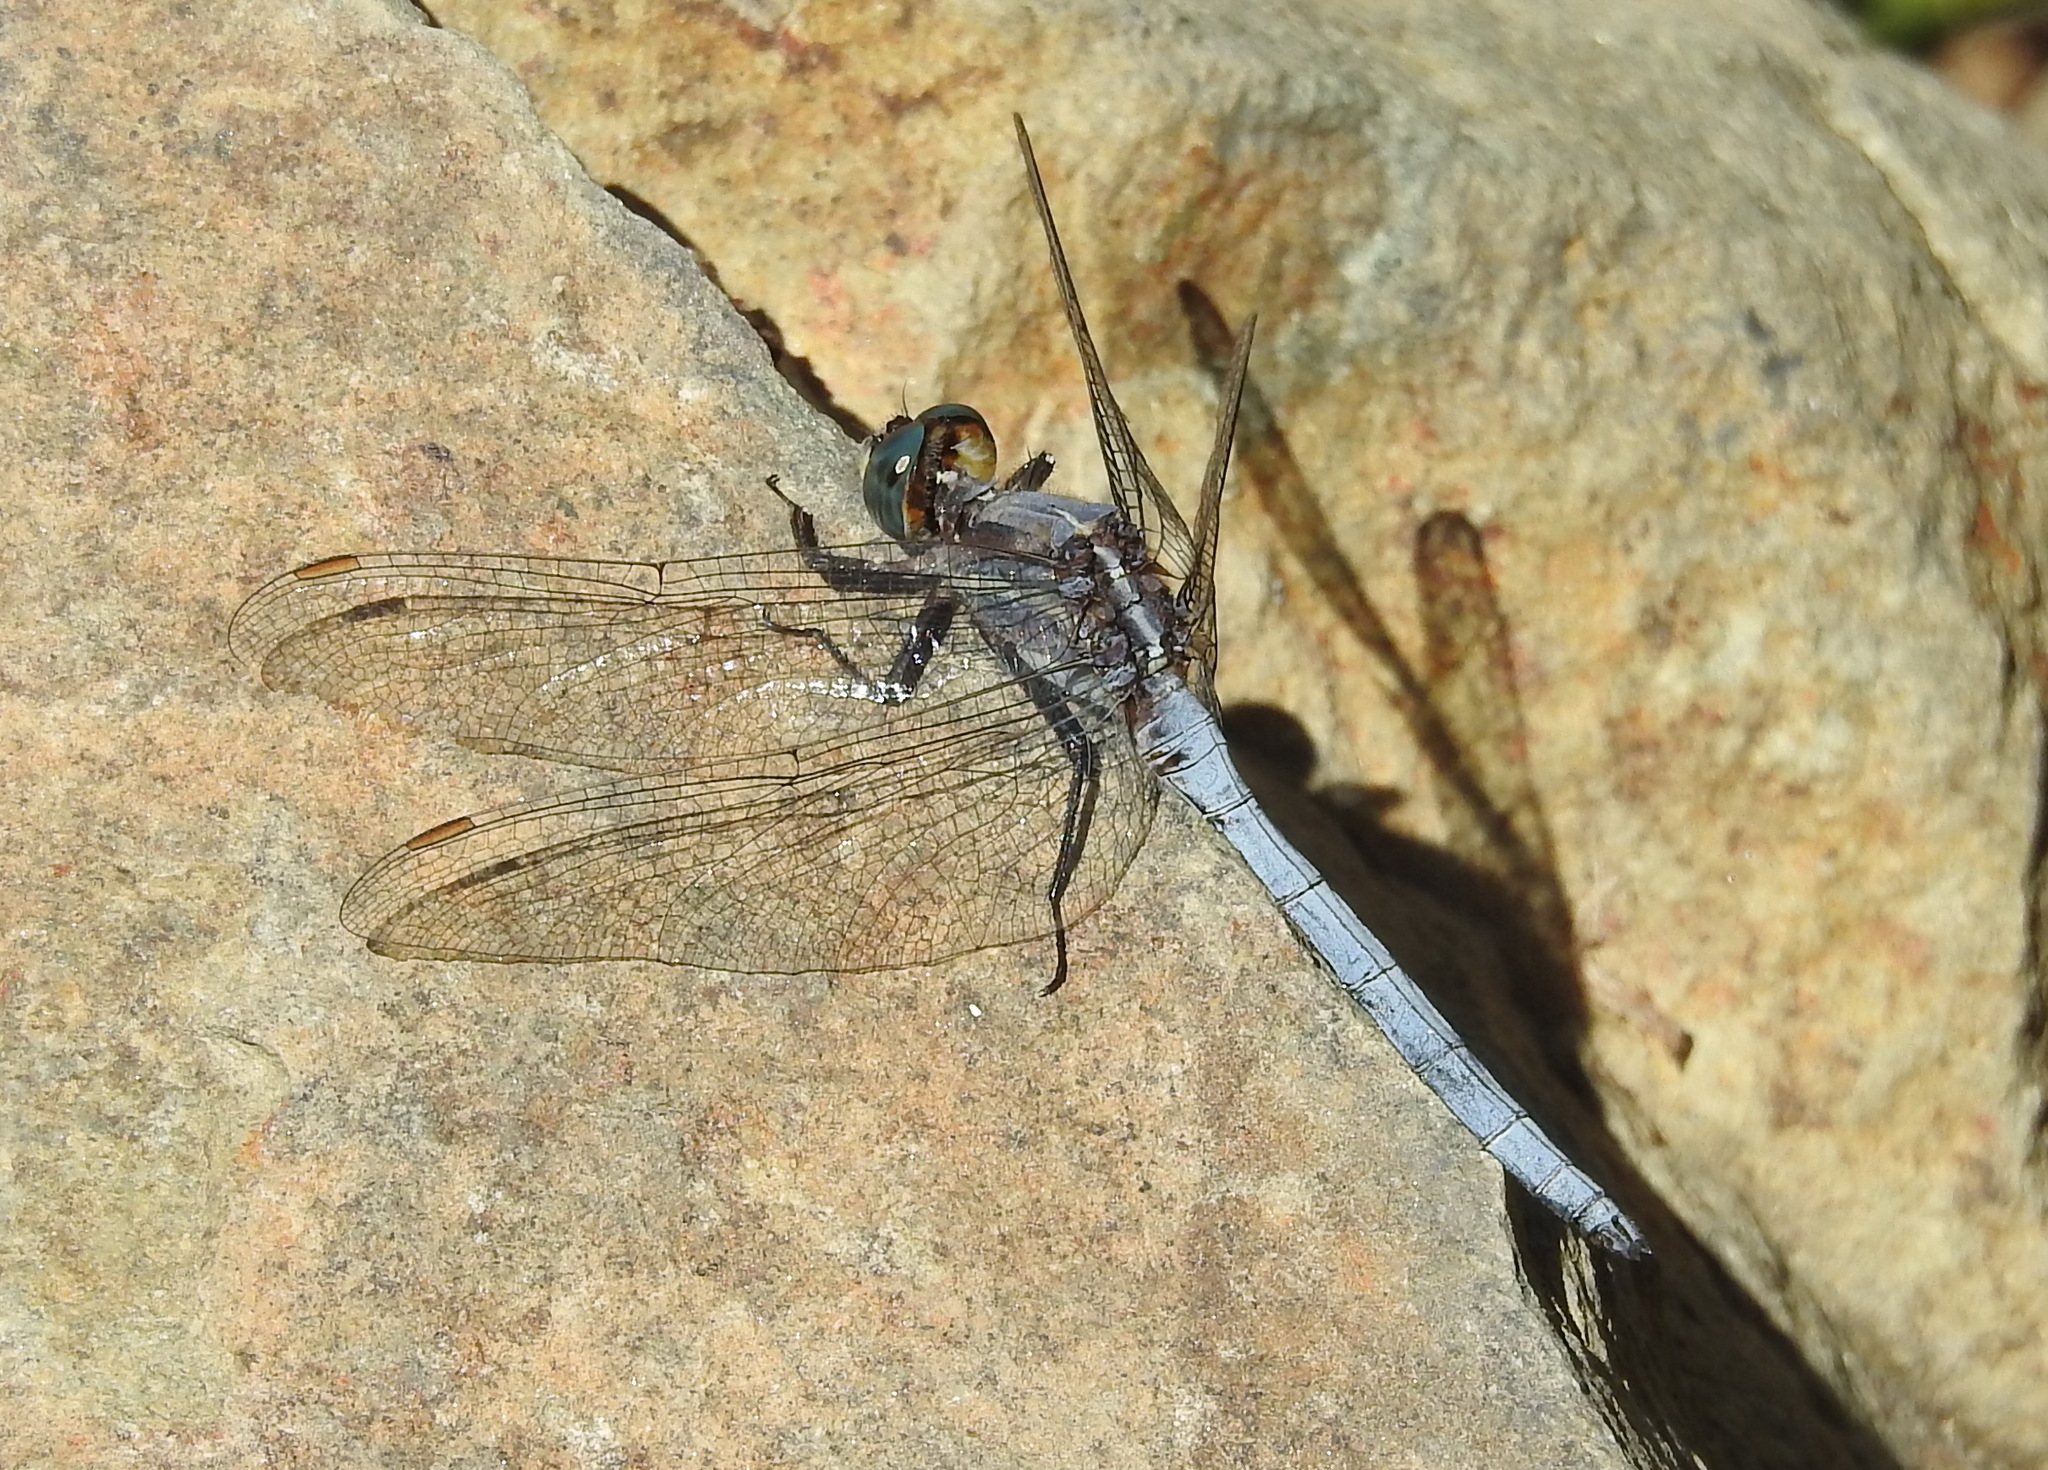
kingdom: Animalia
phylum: Arthropoda
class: Insecta
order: Odonata
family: Libellulidae
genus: Orthetrum
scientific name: Orthetrum chrysostigma
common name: Epaulet skimmer
